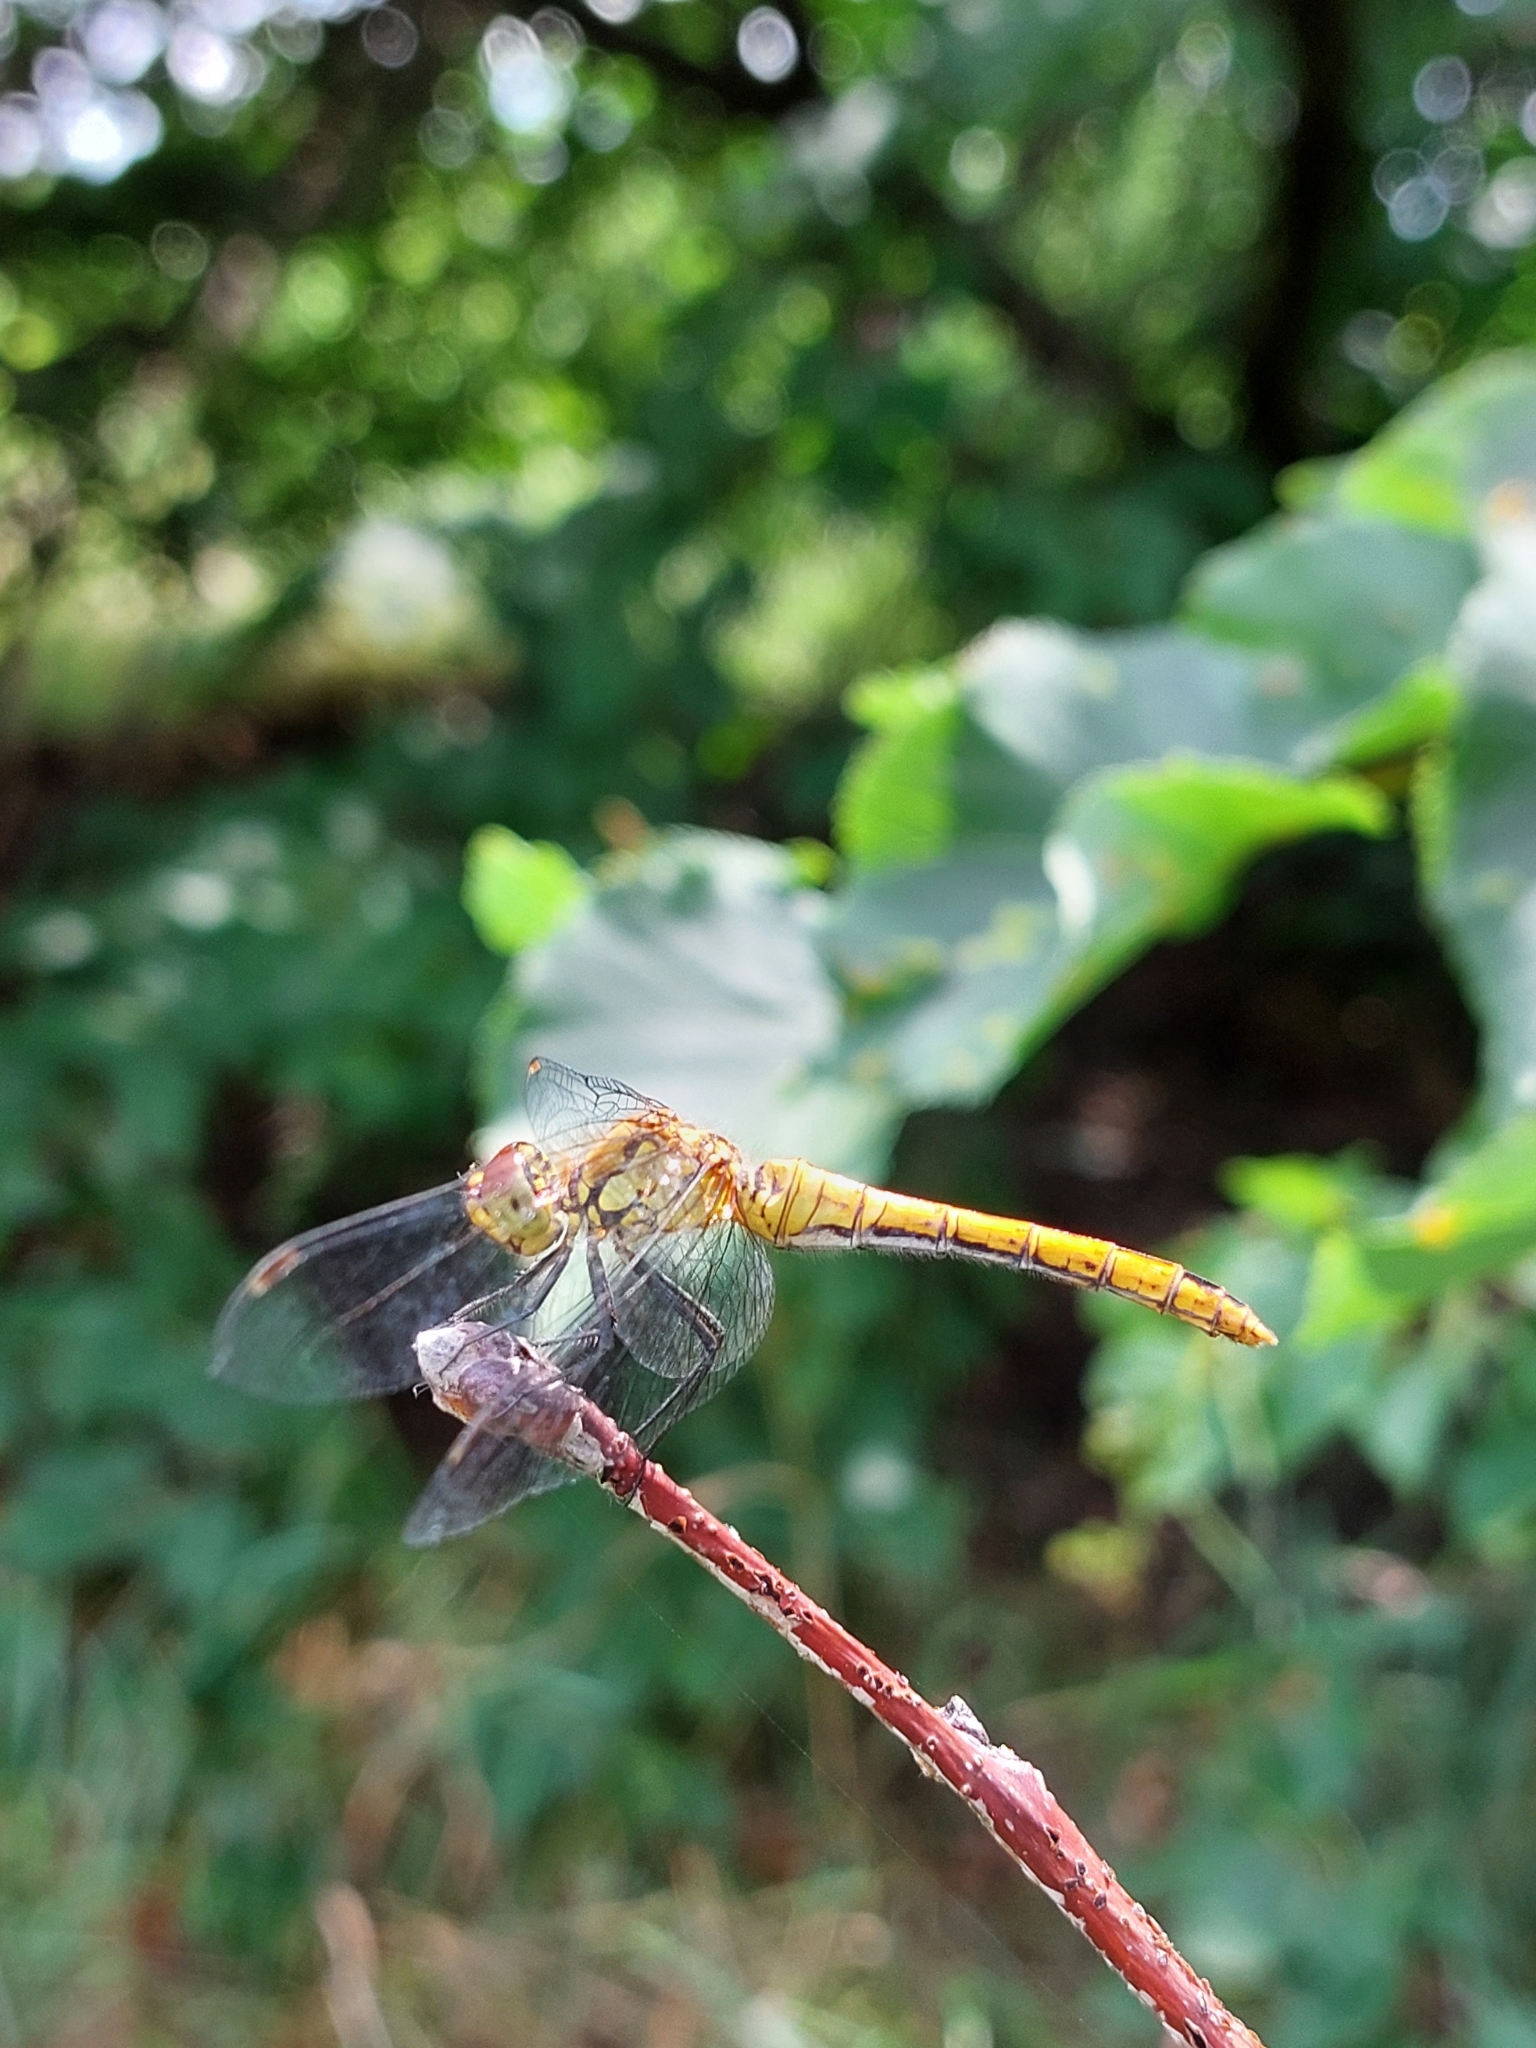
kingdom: Animalia
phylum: Arthropoda
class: Insecta
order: Odonata
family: Libellulidae
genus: Sympetrum
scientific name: Sympetrum sanguineum
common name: Ruddy darter
